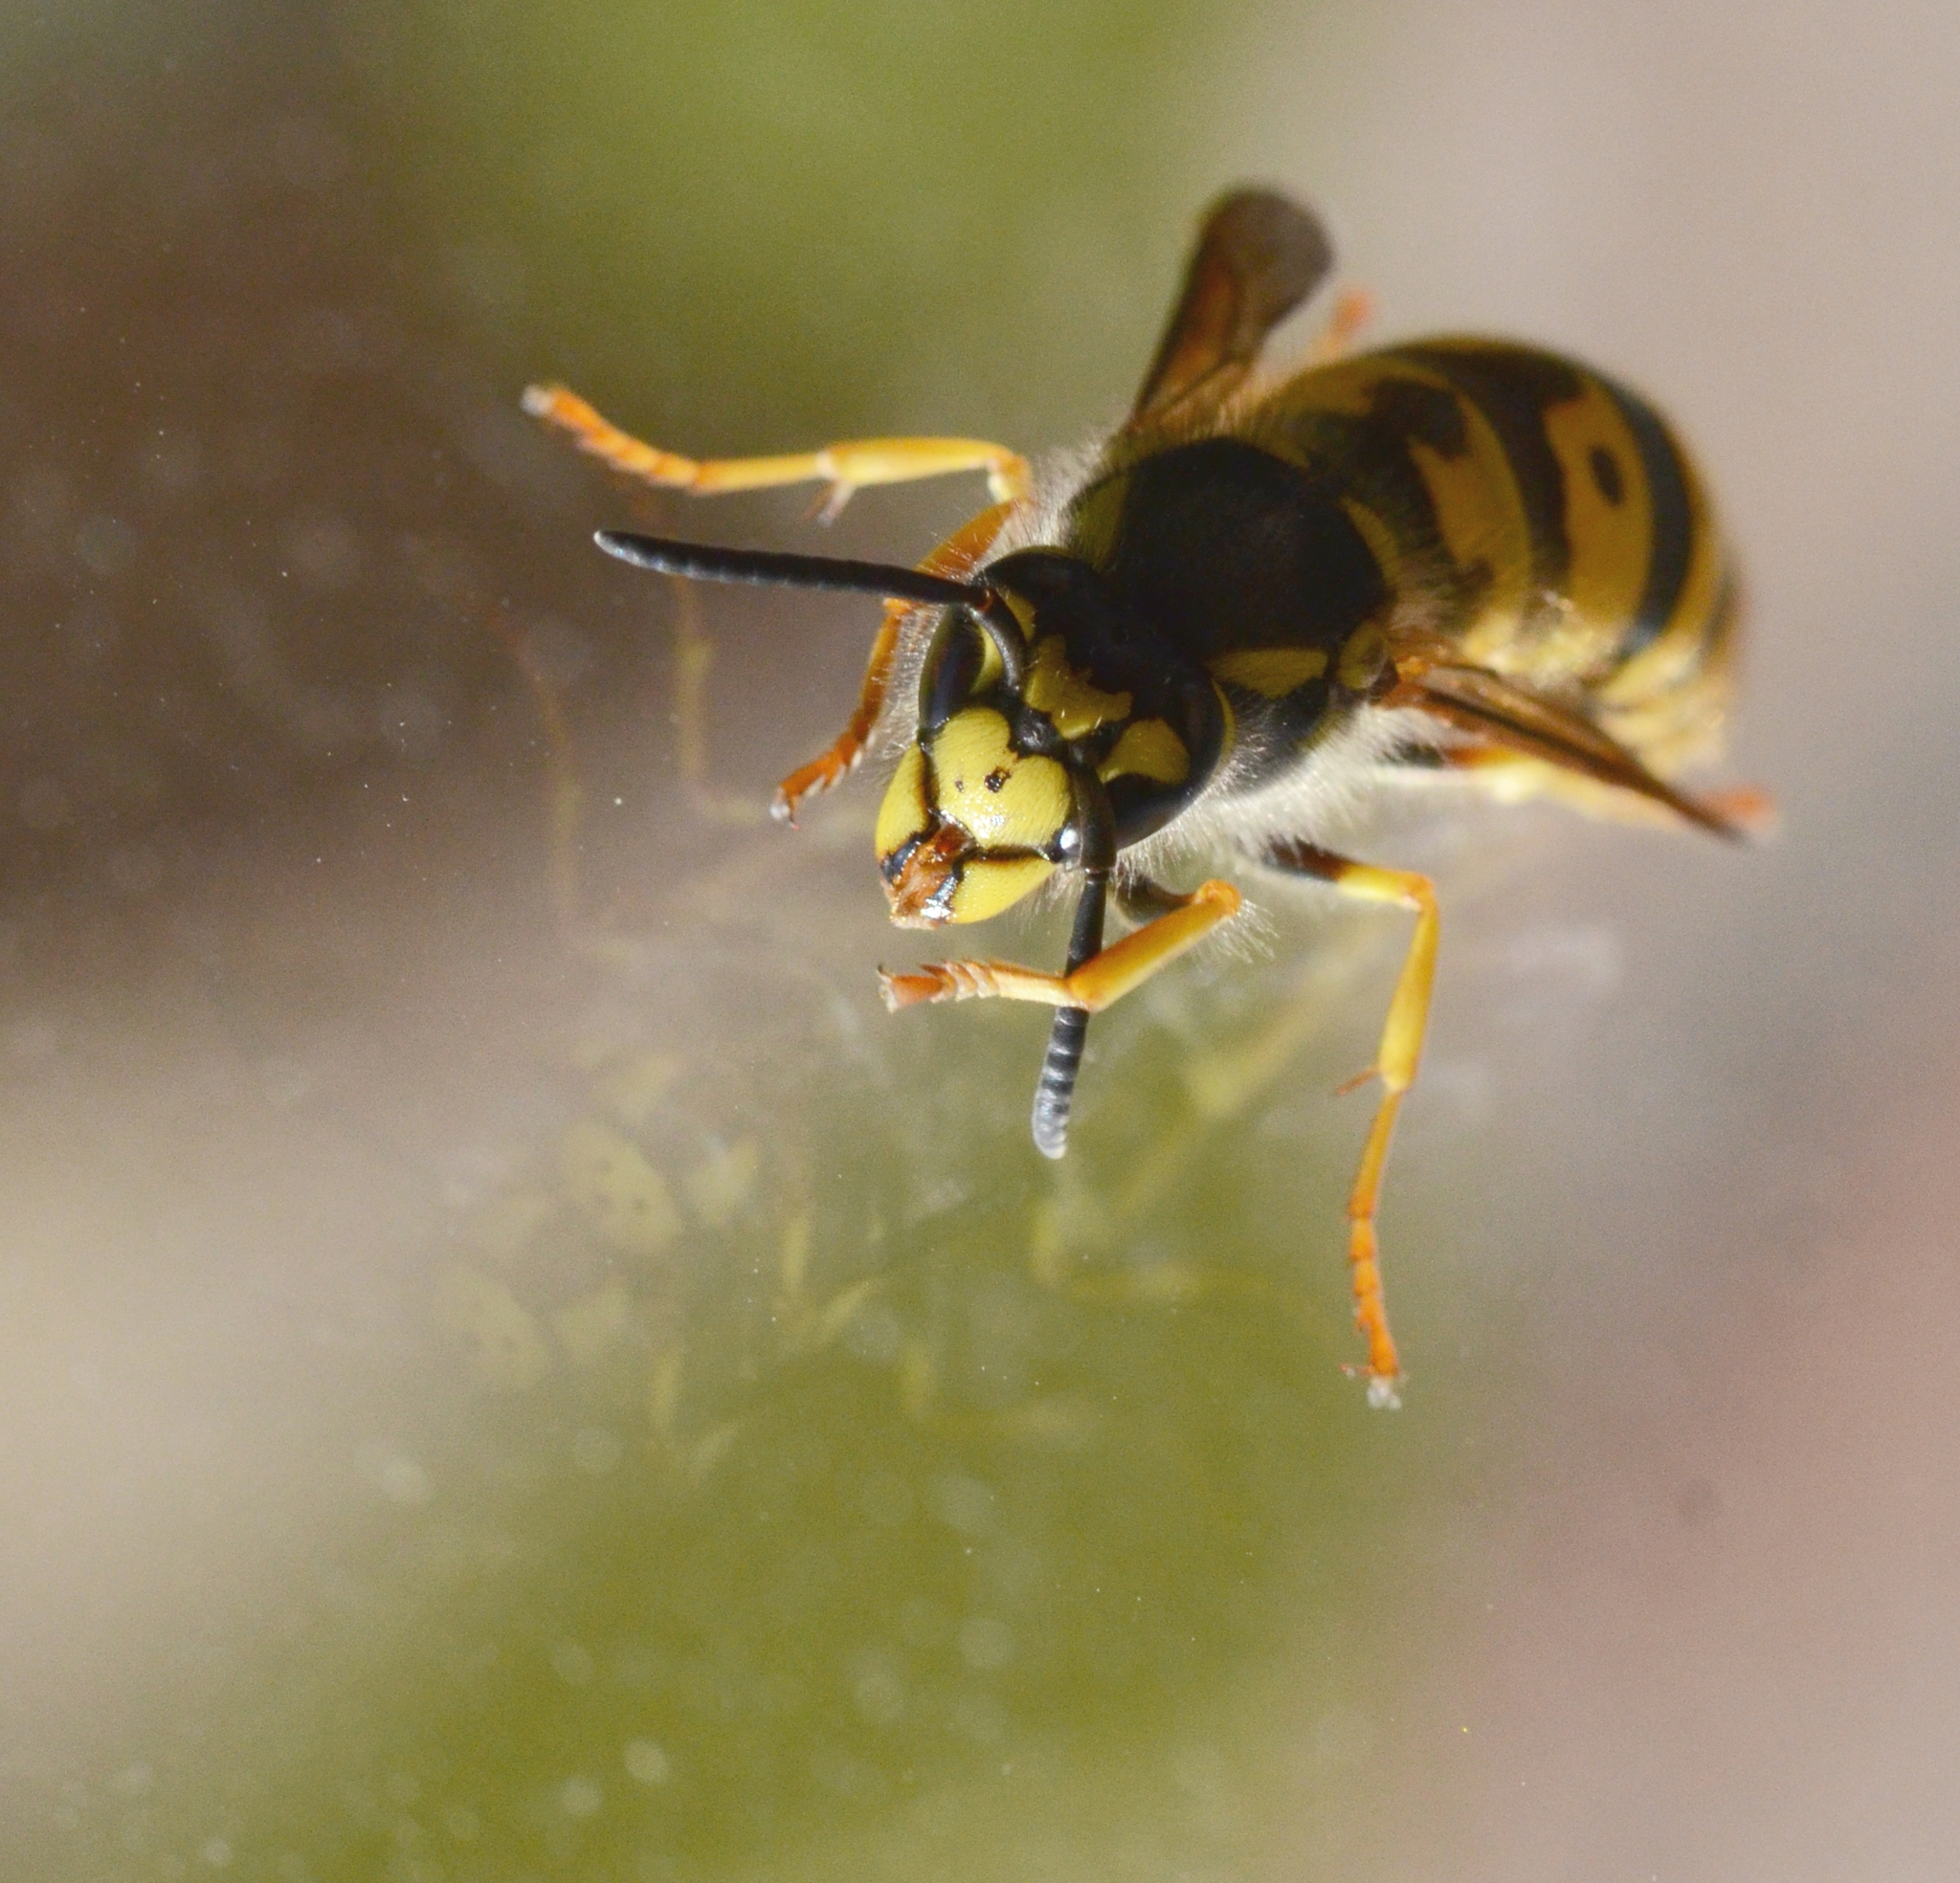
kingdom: Animalia
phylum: Arthropoda
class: Insecta
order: Hymenoptera
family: Vespidae
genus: Vespula
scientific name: Vespula germanica
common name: German wasp
